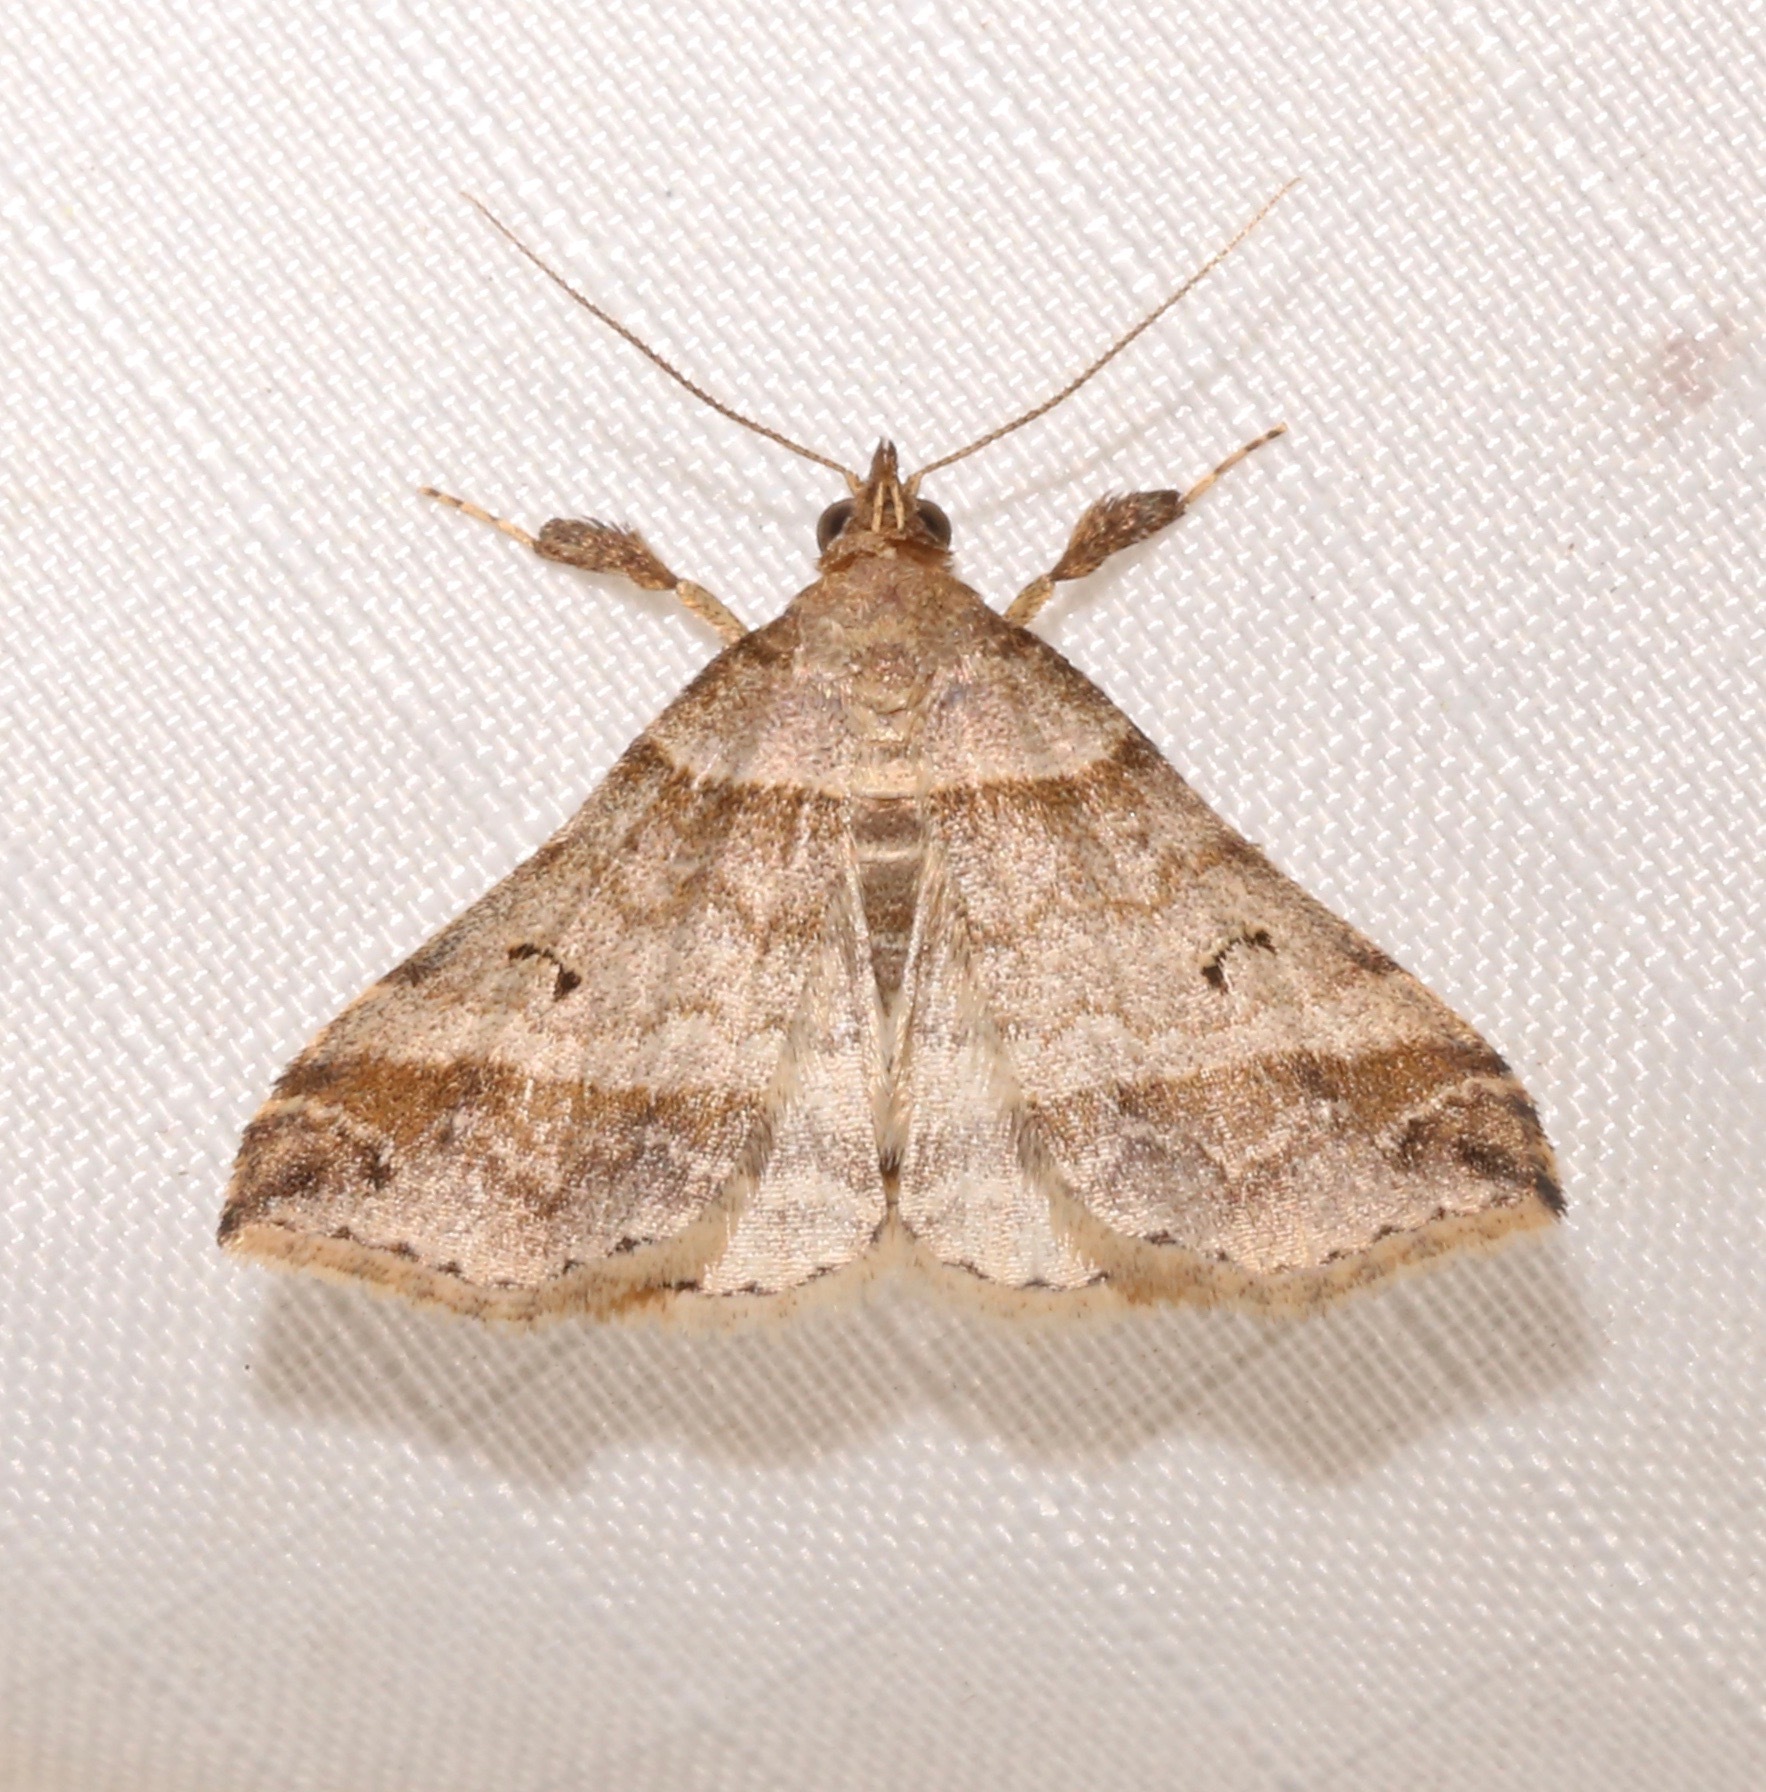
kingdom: Animalia
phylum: Arthropoda
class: Insecta
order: Lepidoptera
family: Erebidae
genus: Phaeolita
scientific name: Phaeolita pyramusalis
